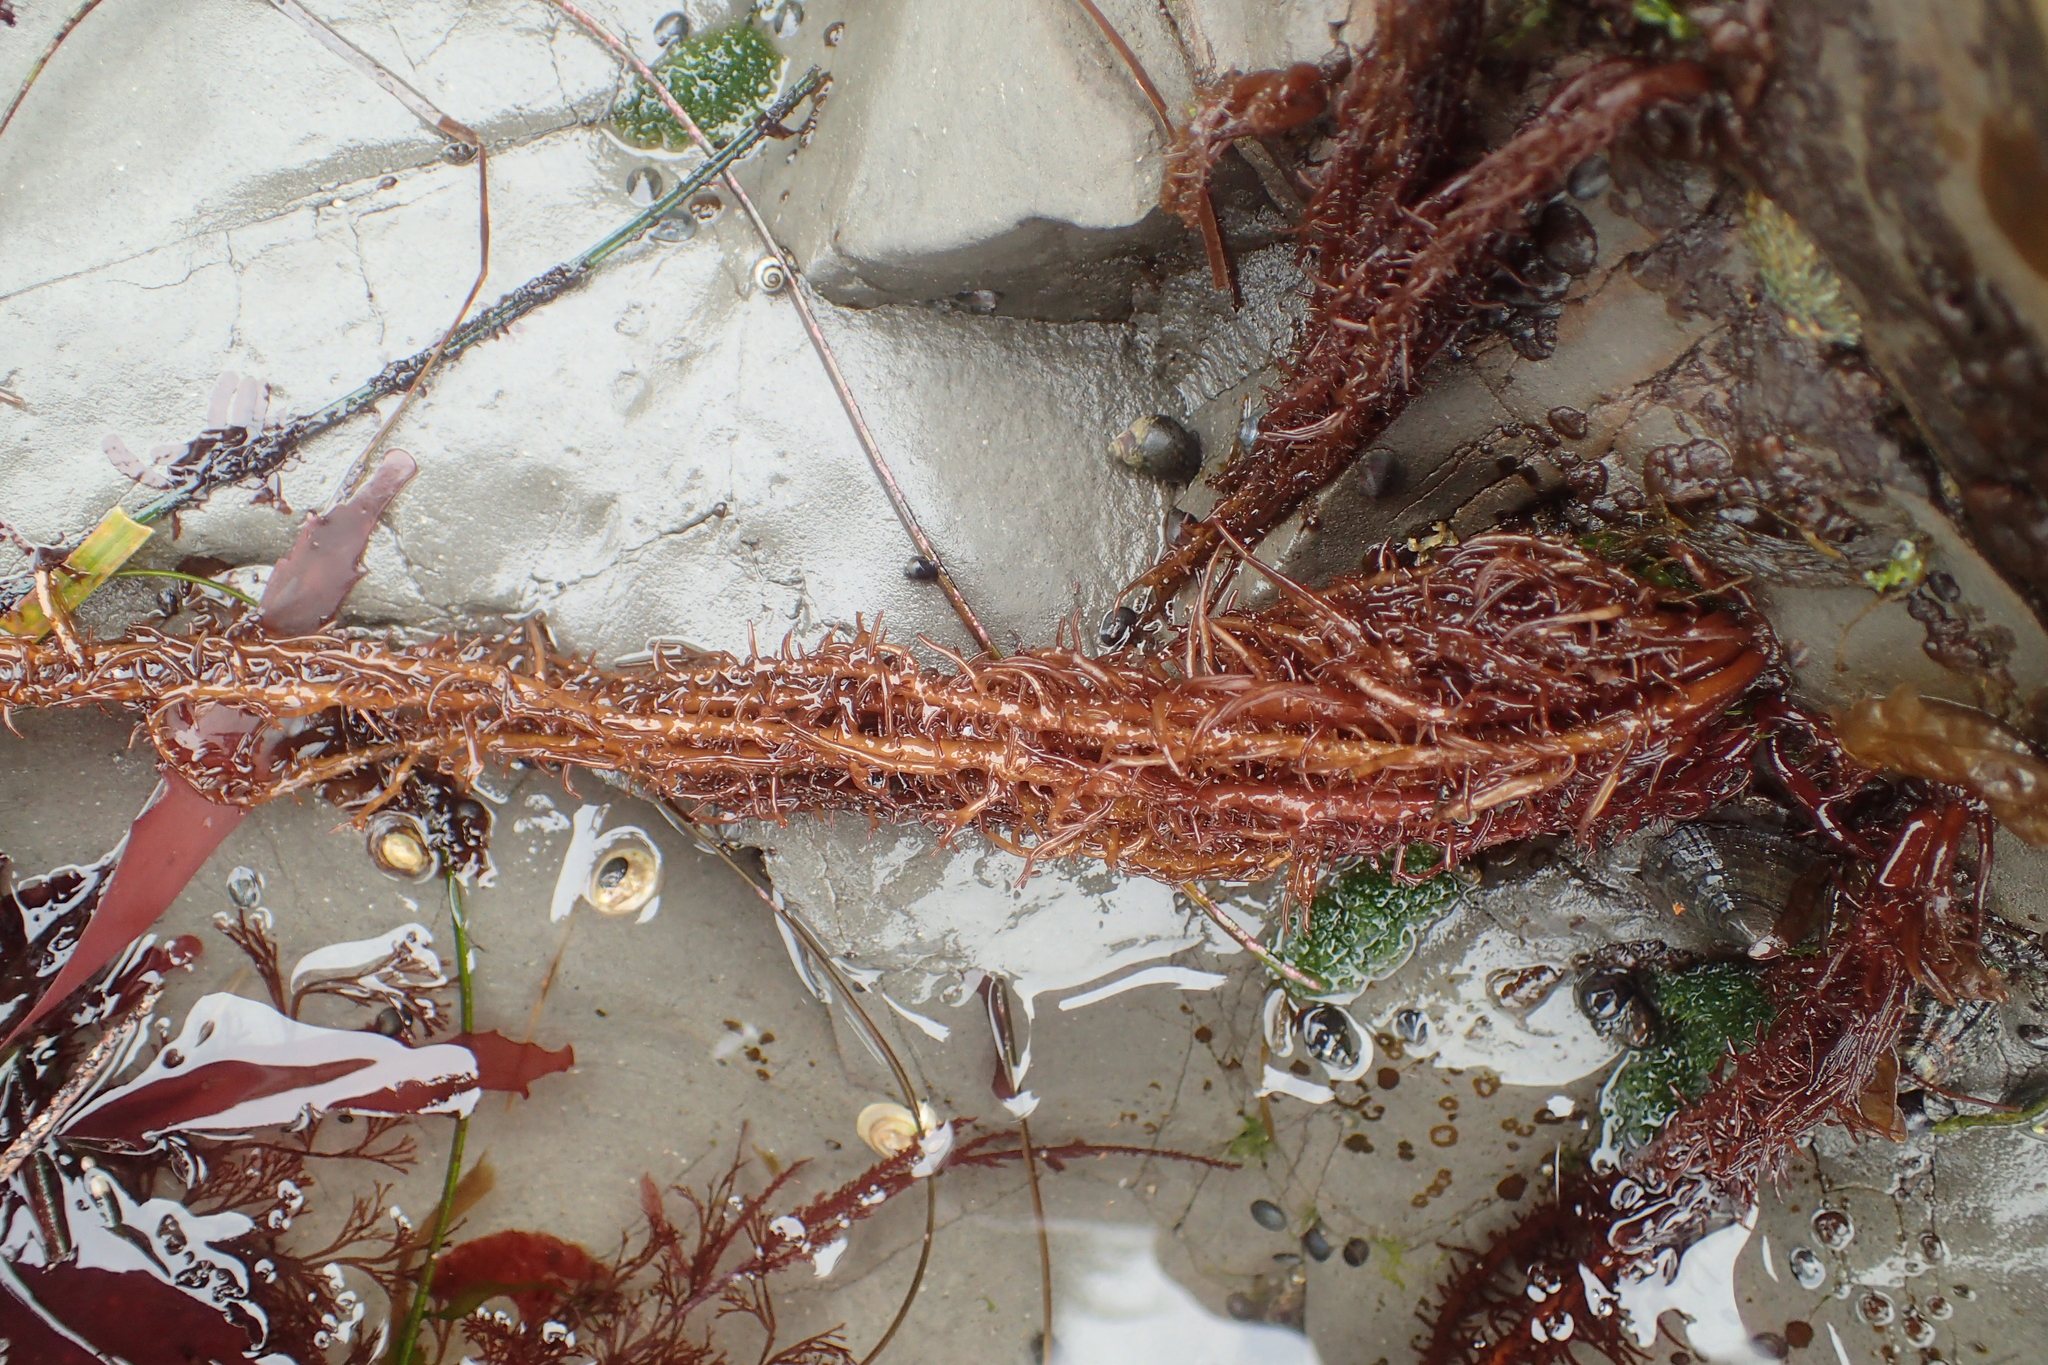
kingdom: Plantae
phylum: Rhodophyta
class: Florideophyceae
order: Nemaliales
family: Liagoraceae
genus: Cumagloia
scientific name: Cumagloia andersonii
